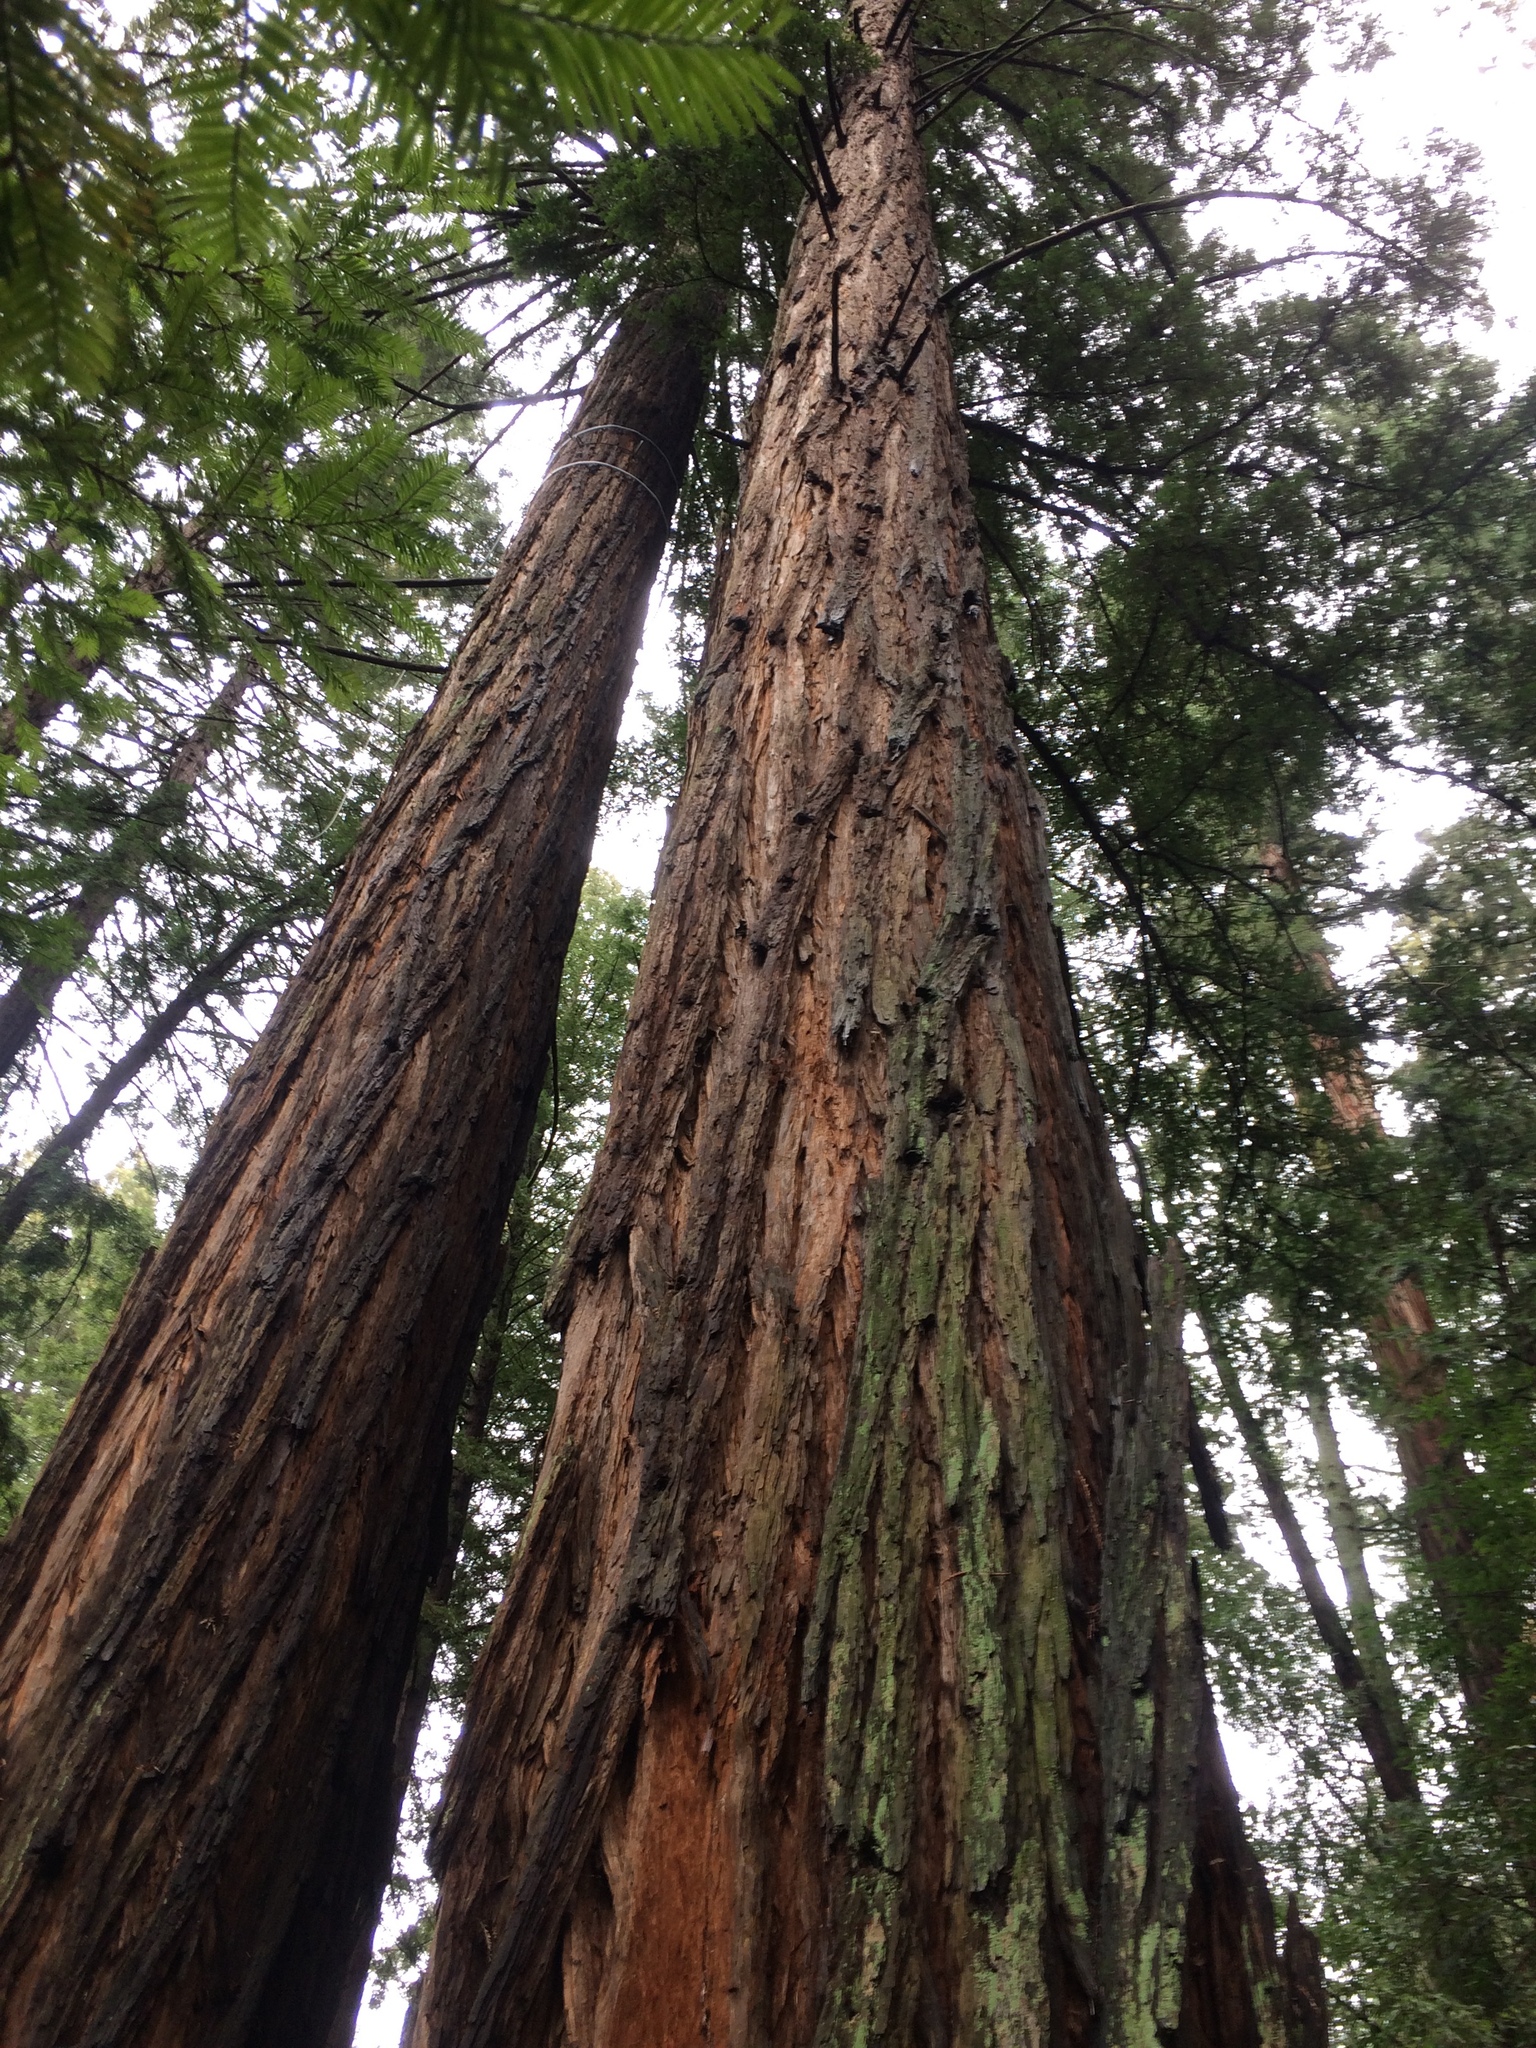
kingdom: Plantae
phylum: Tracheophyta
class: Pinopsida
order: Pinales
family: Cupressaceae
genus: Sequoia
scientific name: Sequoia sempervirens
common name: Coast redwood
